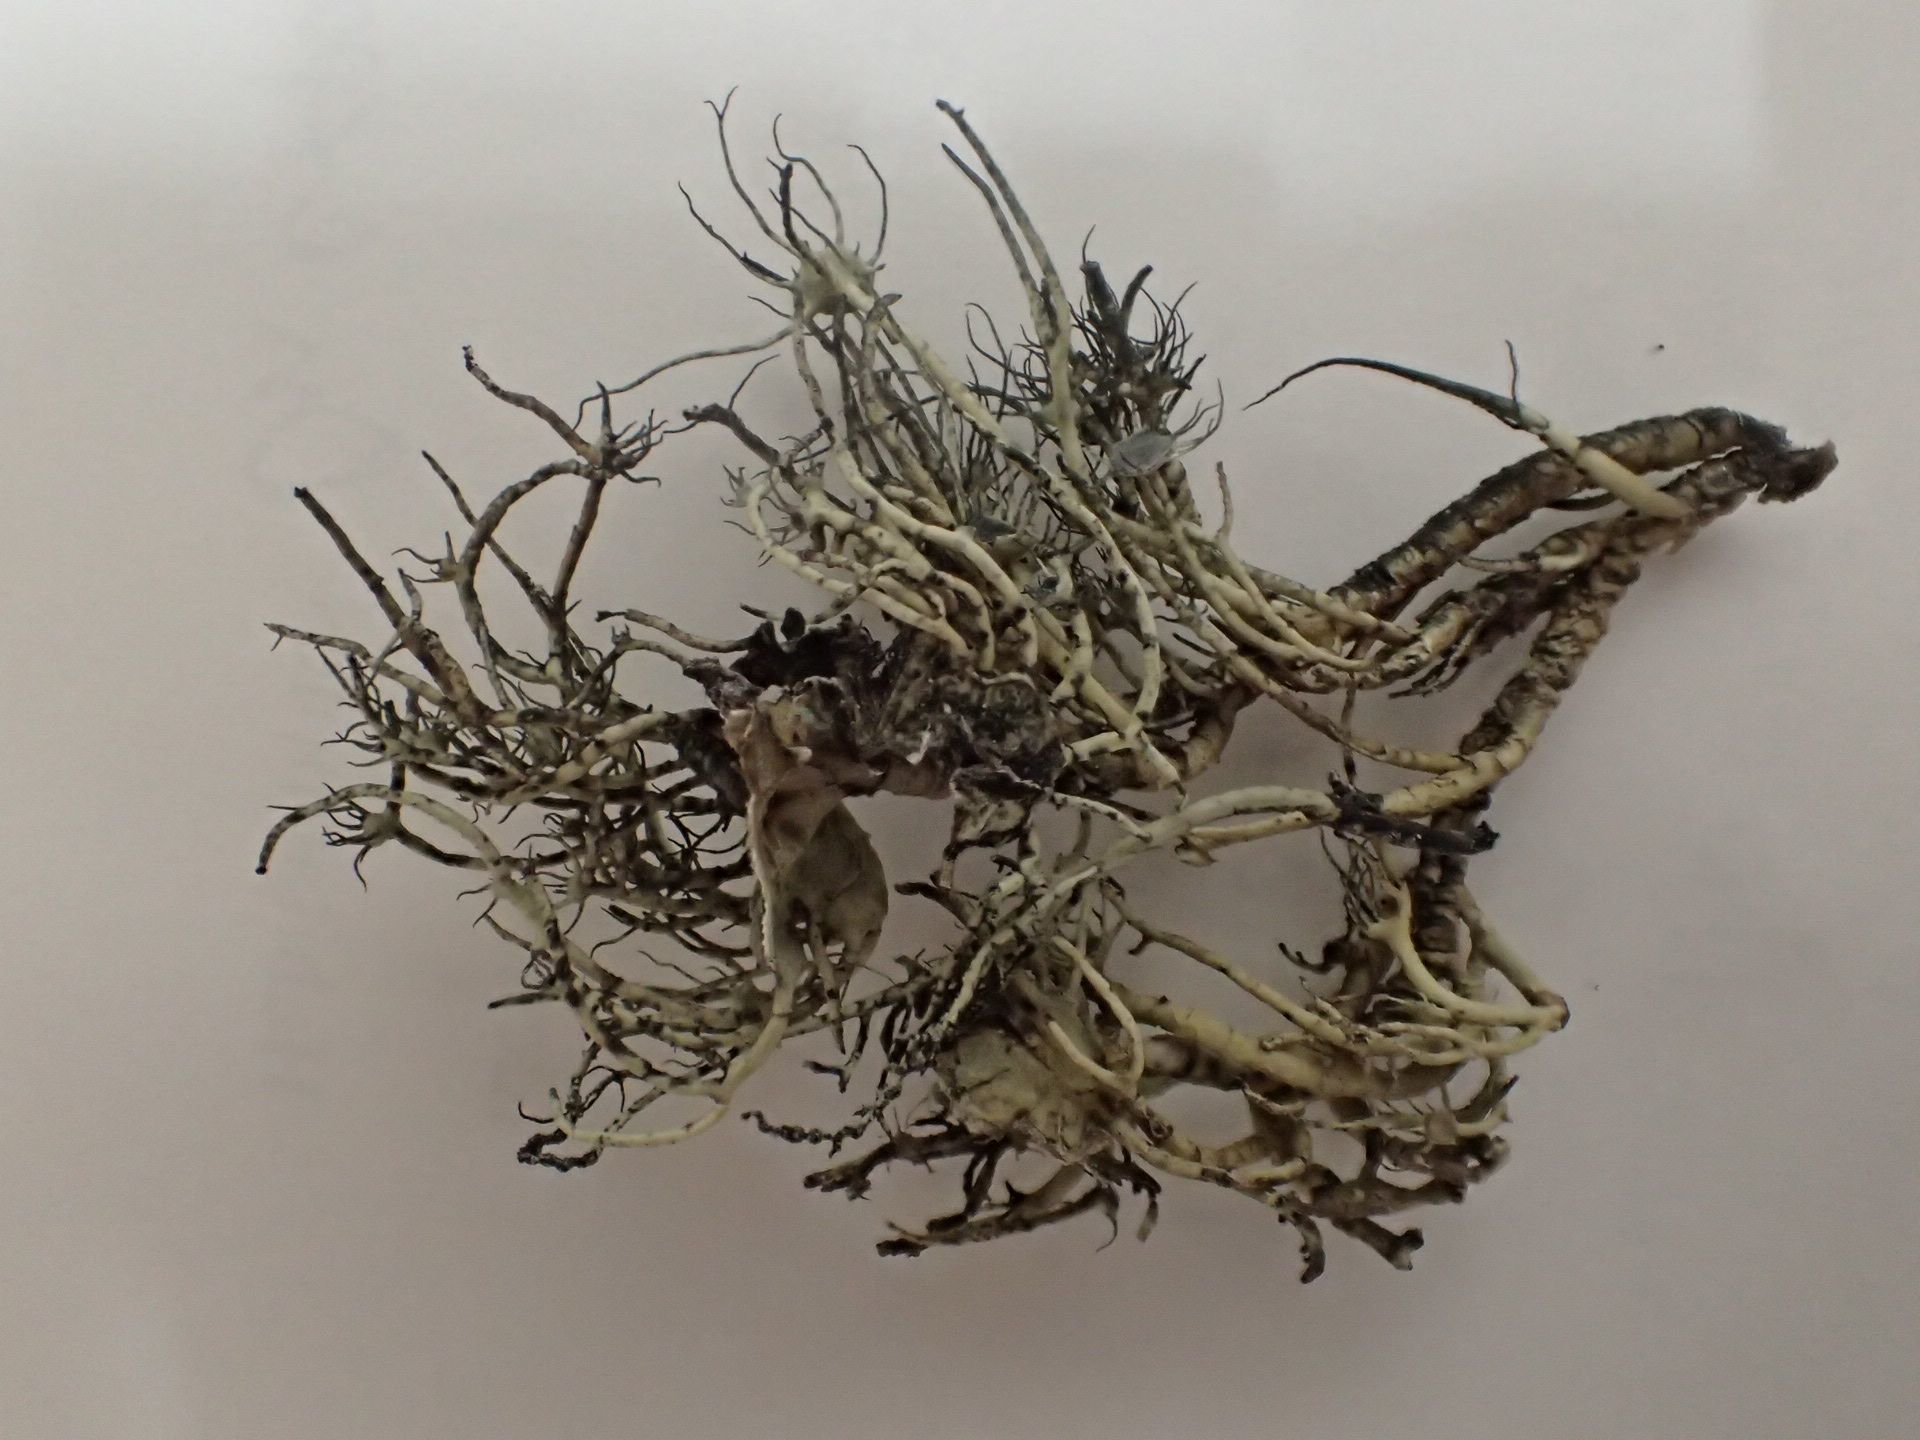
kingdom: Fungi
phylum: Ascomycota
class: Lecanoromycetes
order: Lecanorales
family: Parmeliaceae
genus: Parmotrema
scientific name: Parmotrema reticulatum
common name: Black sheet lichen
